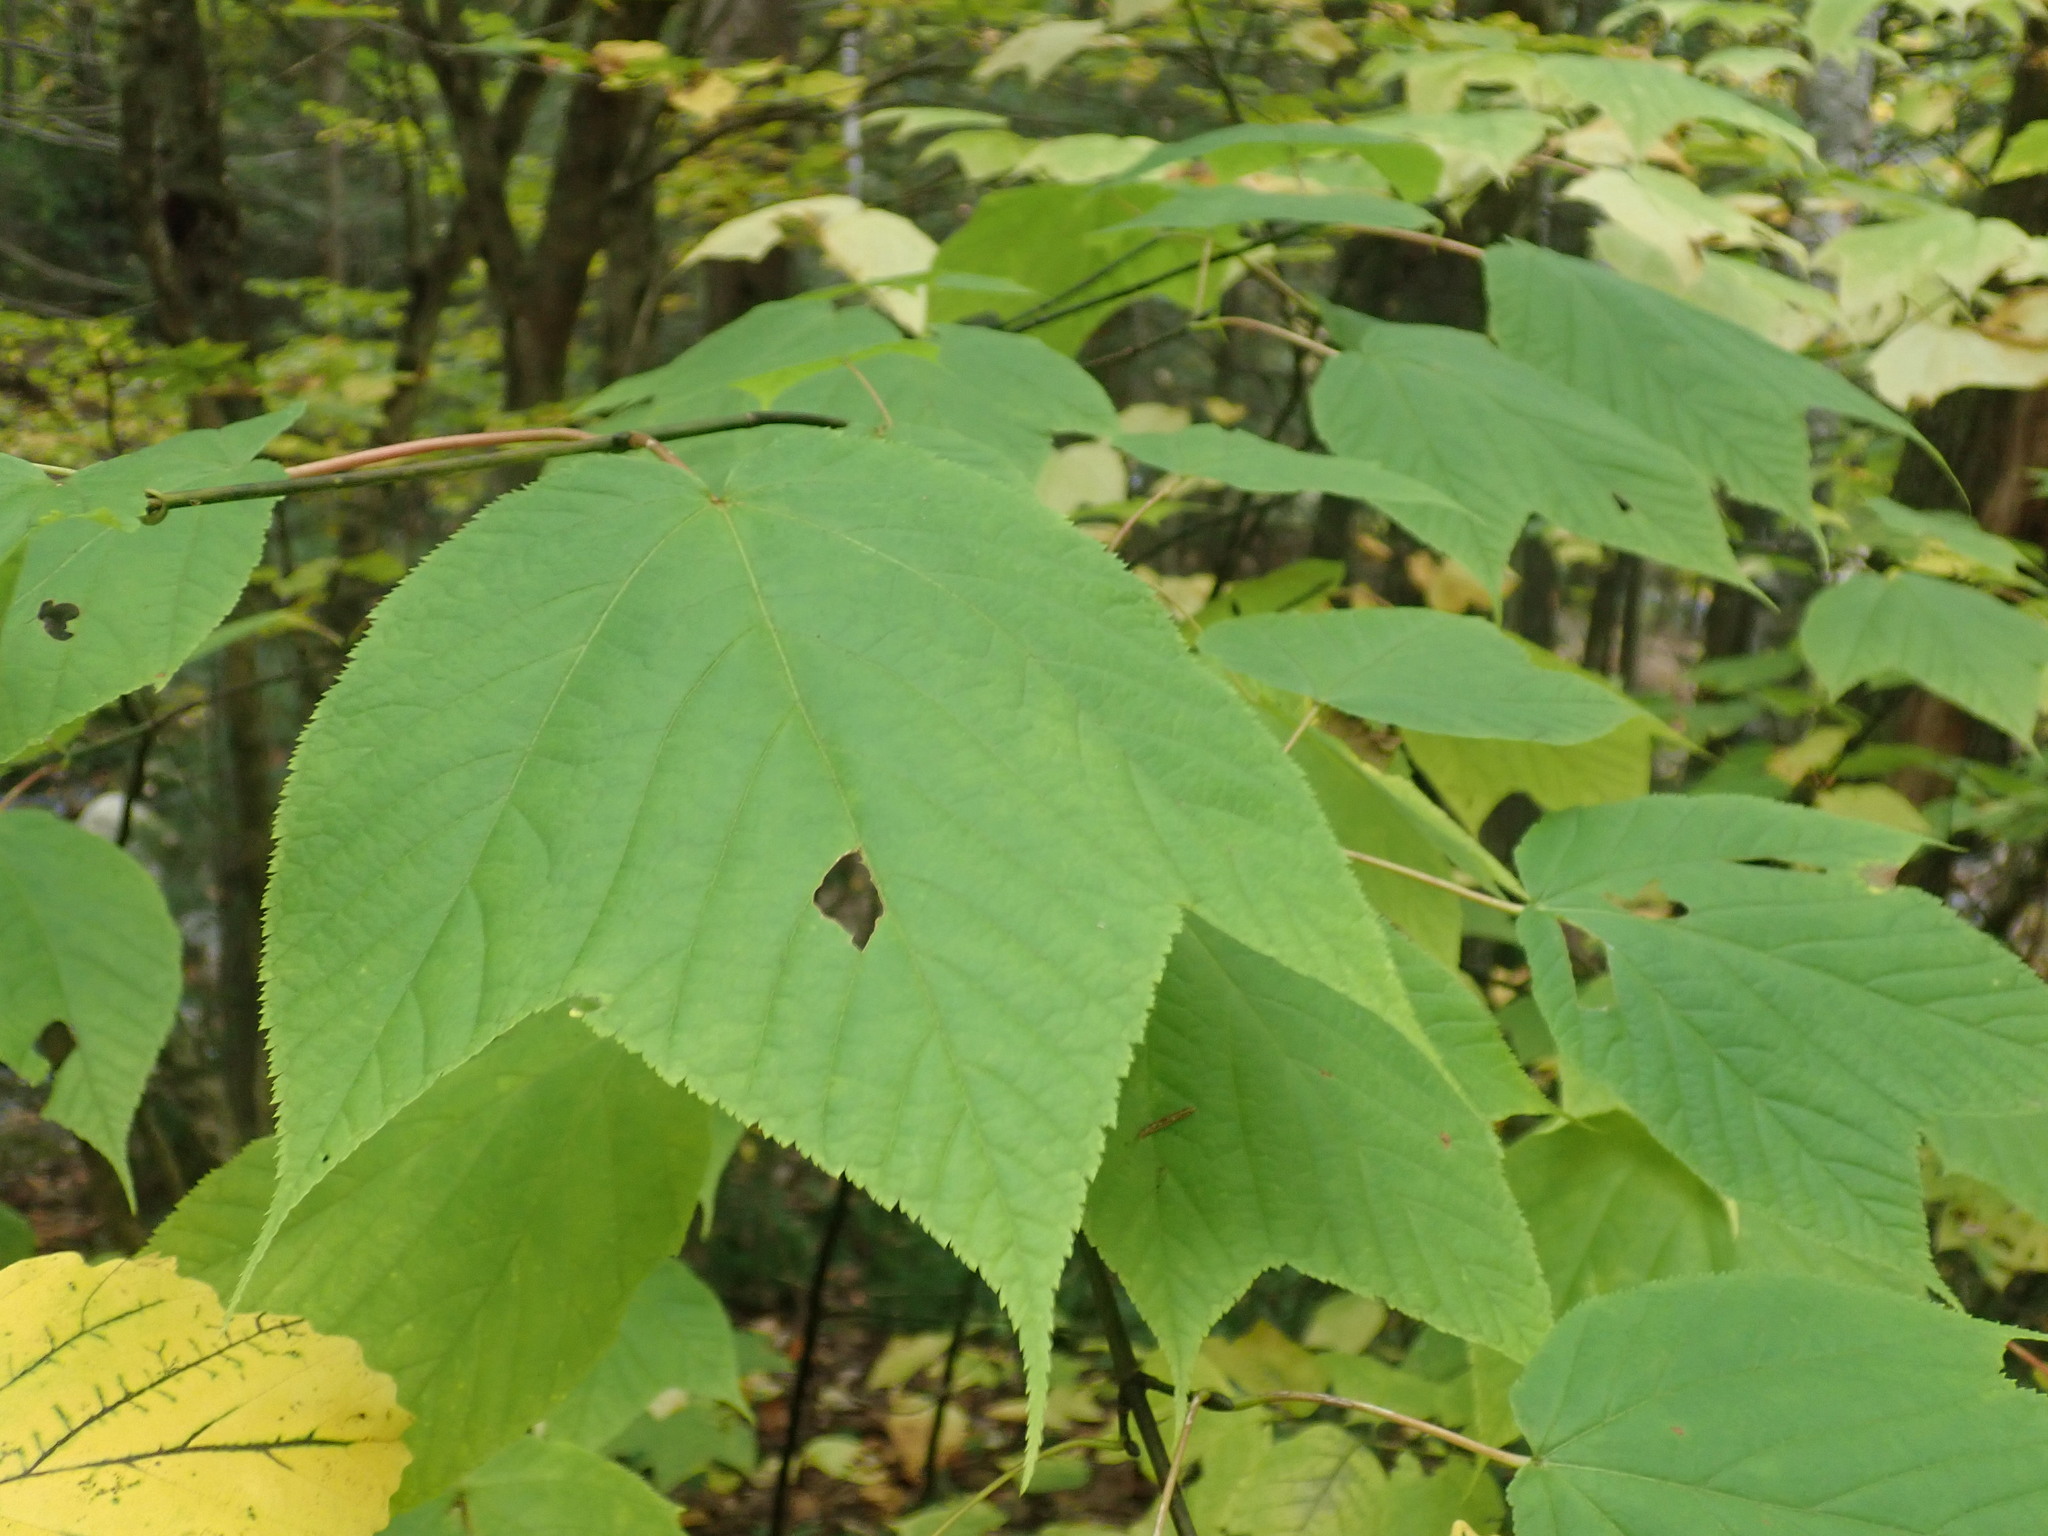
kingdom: Plantae
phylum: Tracheophyta
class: Magnoliopsida
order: Sapindales
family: Sapindaceae
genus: Acer
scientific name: Acer pensylvanicum
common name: Moosewood
